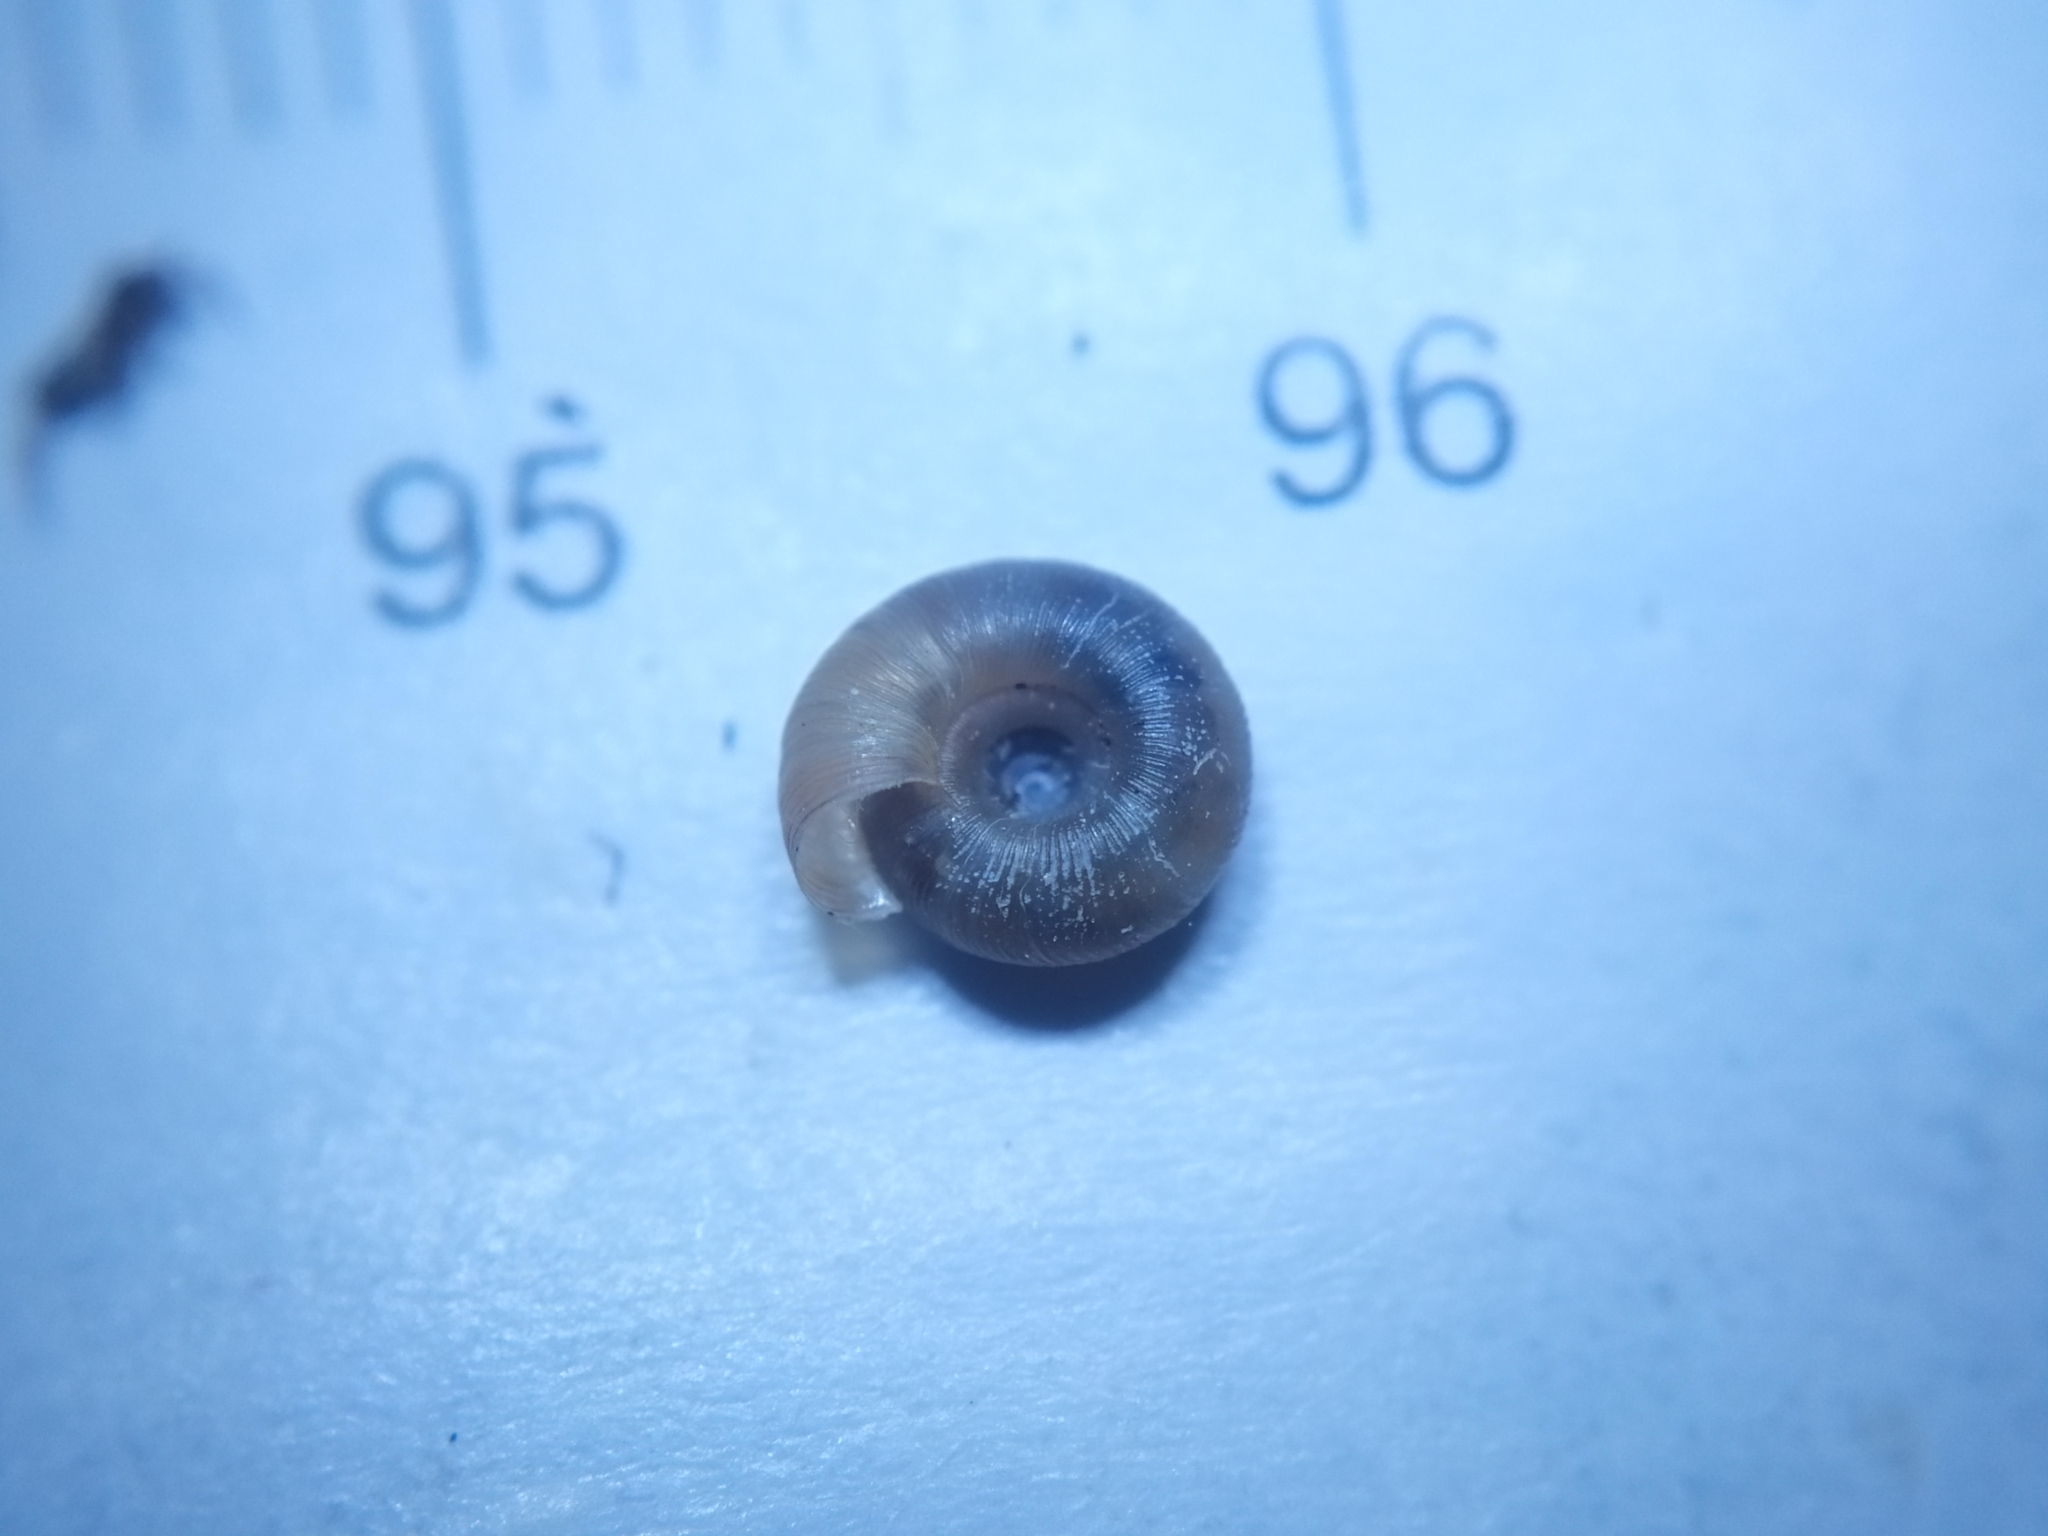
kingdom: Animalia
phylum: Mollusca
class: Gastropoda
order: Stylommatophora
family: Discidae
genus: Discus
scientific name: Discus rotundatus
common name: Rounded snail
